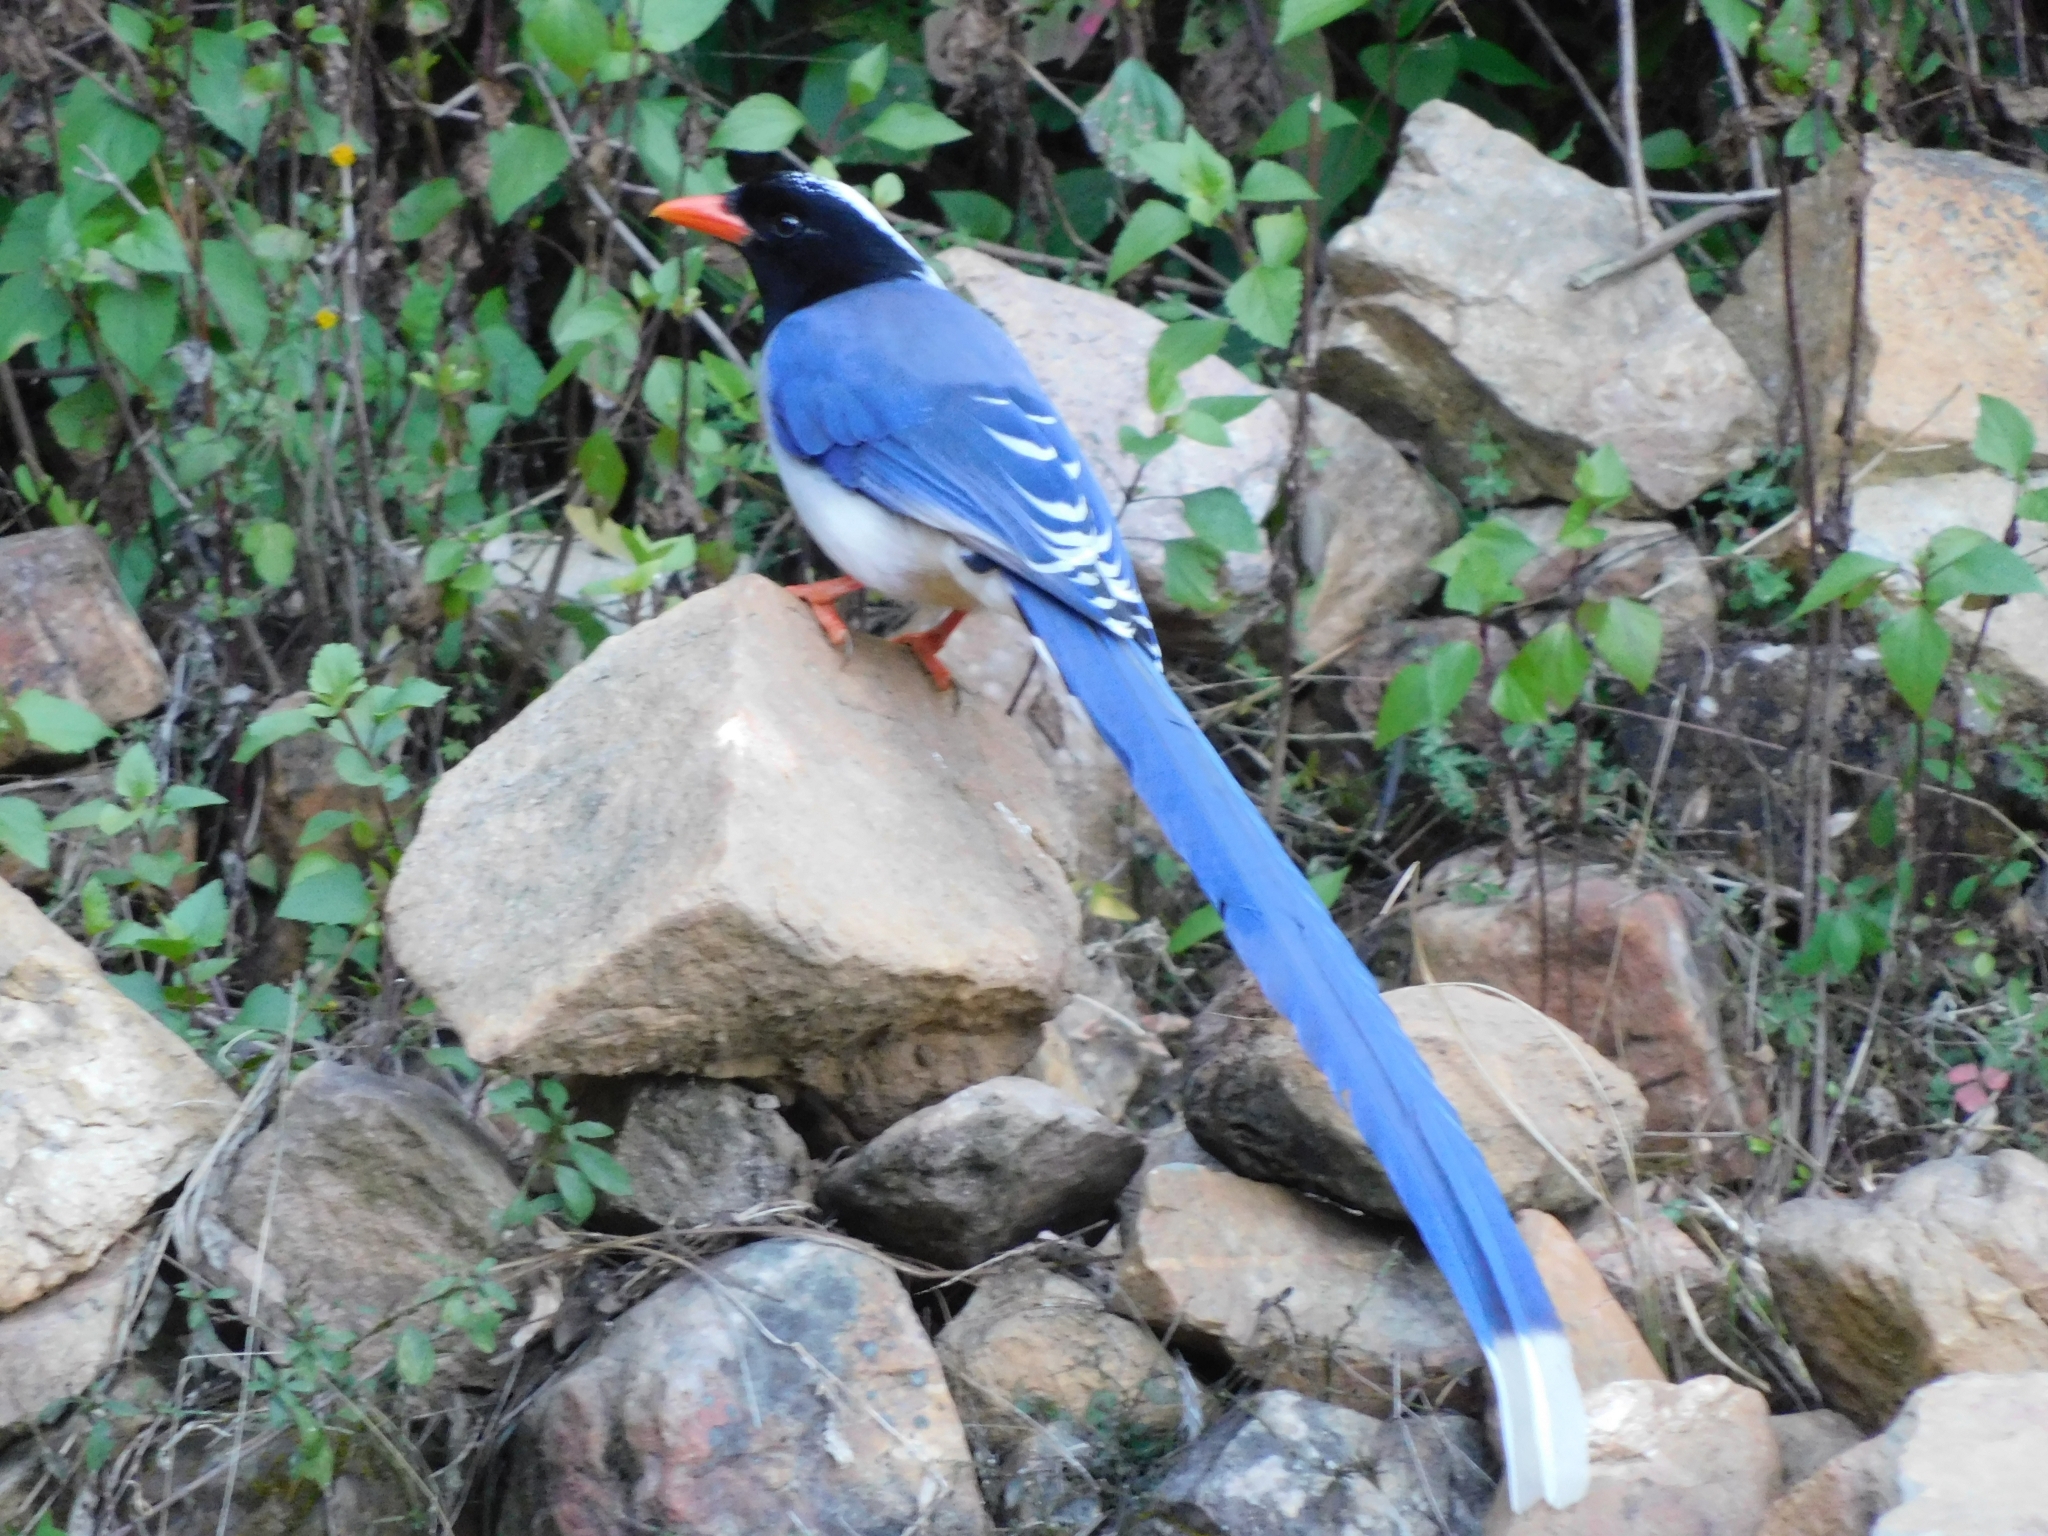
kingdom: Animalia
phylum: Chordata
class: Aves
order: Passeriformes
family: Corvidae
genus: Urocissa
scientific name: Urocissa erythroryncha
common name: Red-billed blue magpie
